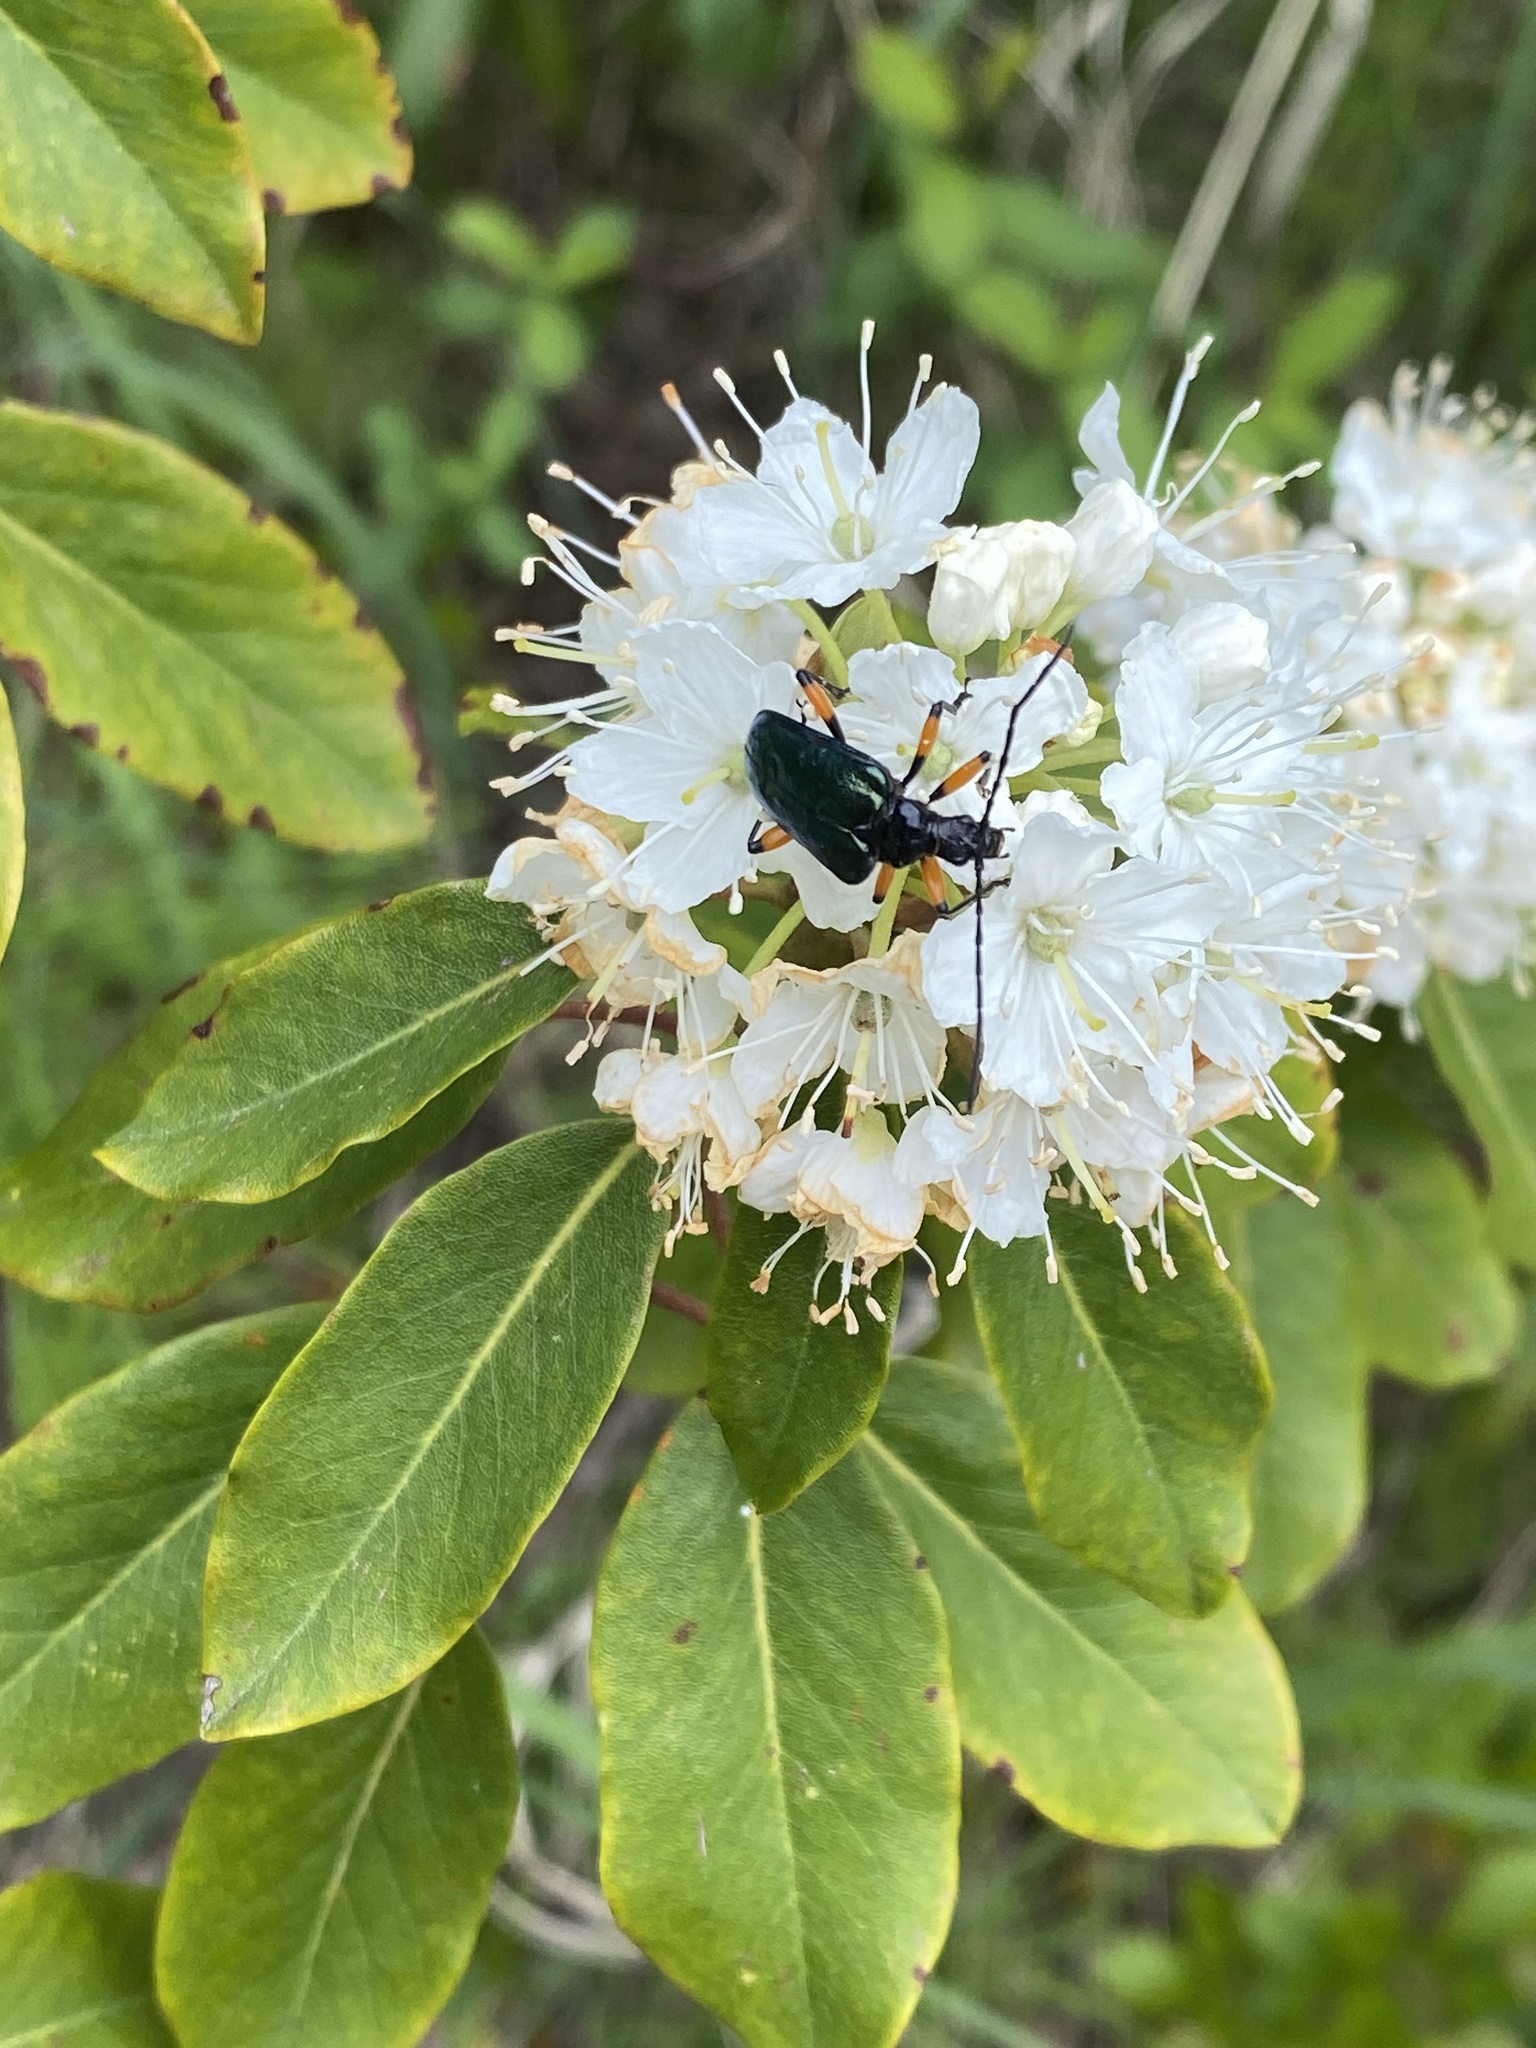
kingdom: Animalia
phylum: Arthropoda
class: Insecta
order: Coleoptera
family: Cerambycidae
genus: Pseudogaurotina
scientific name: Pseudogaurotina cressoni
